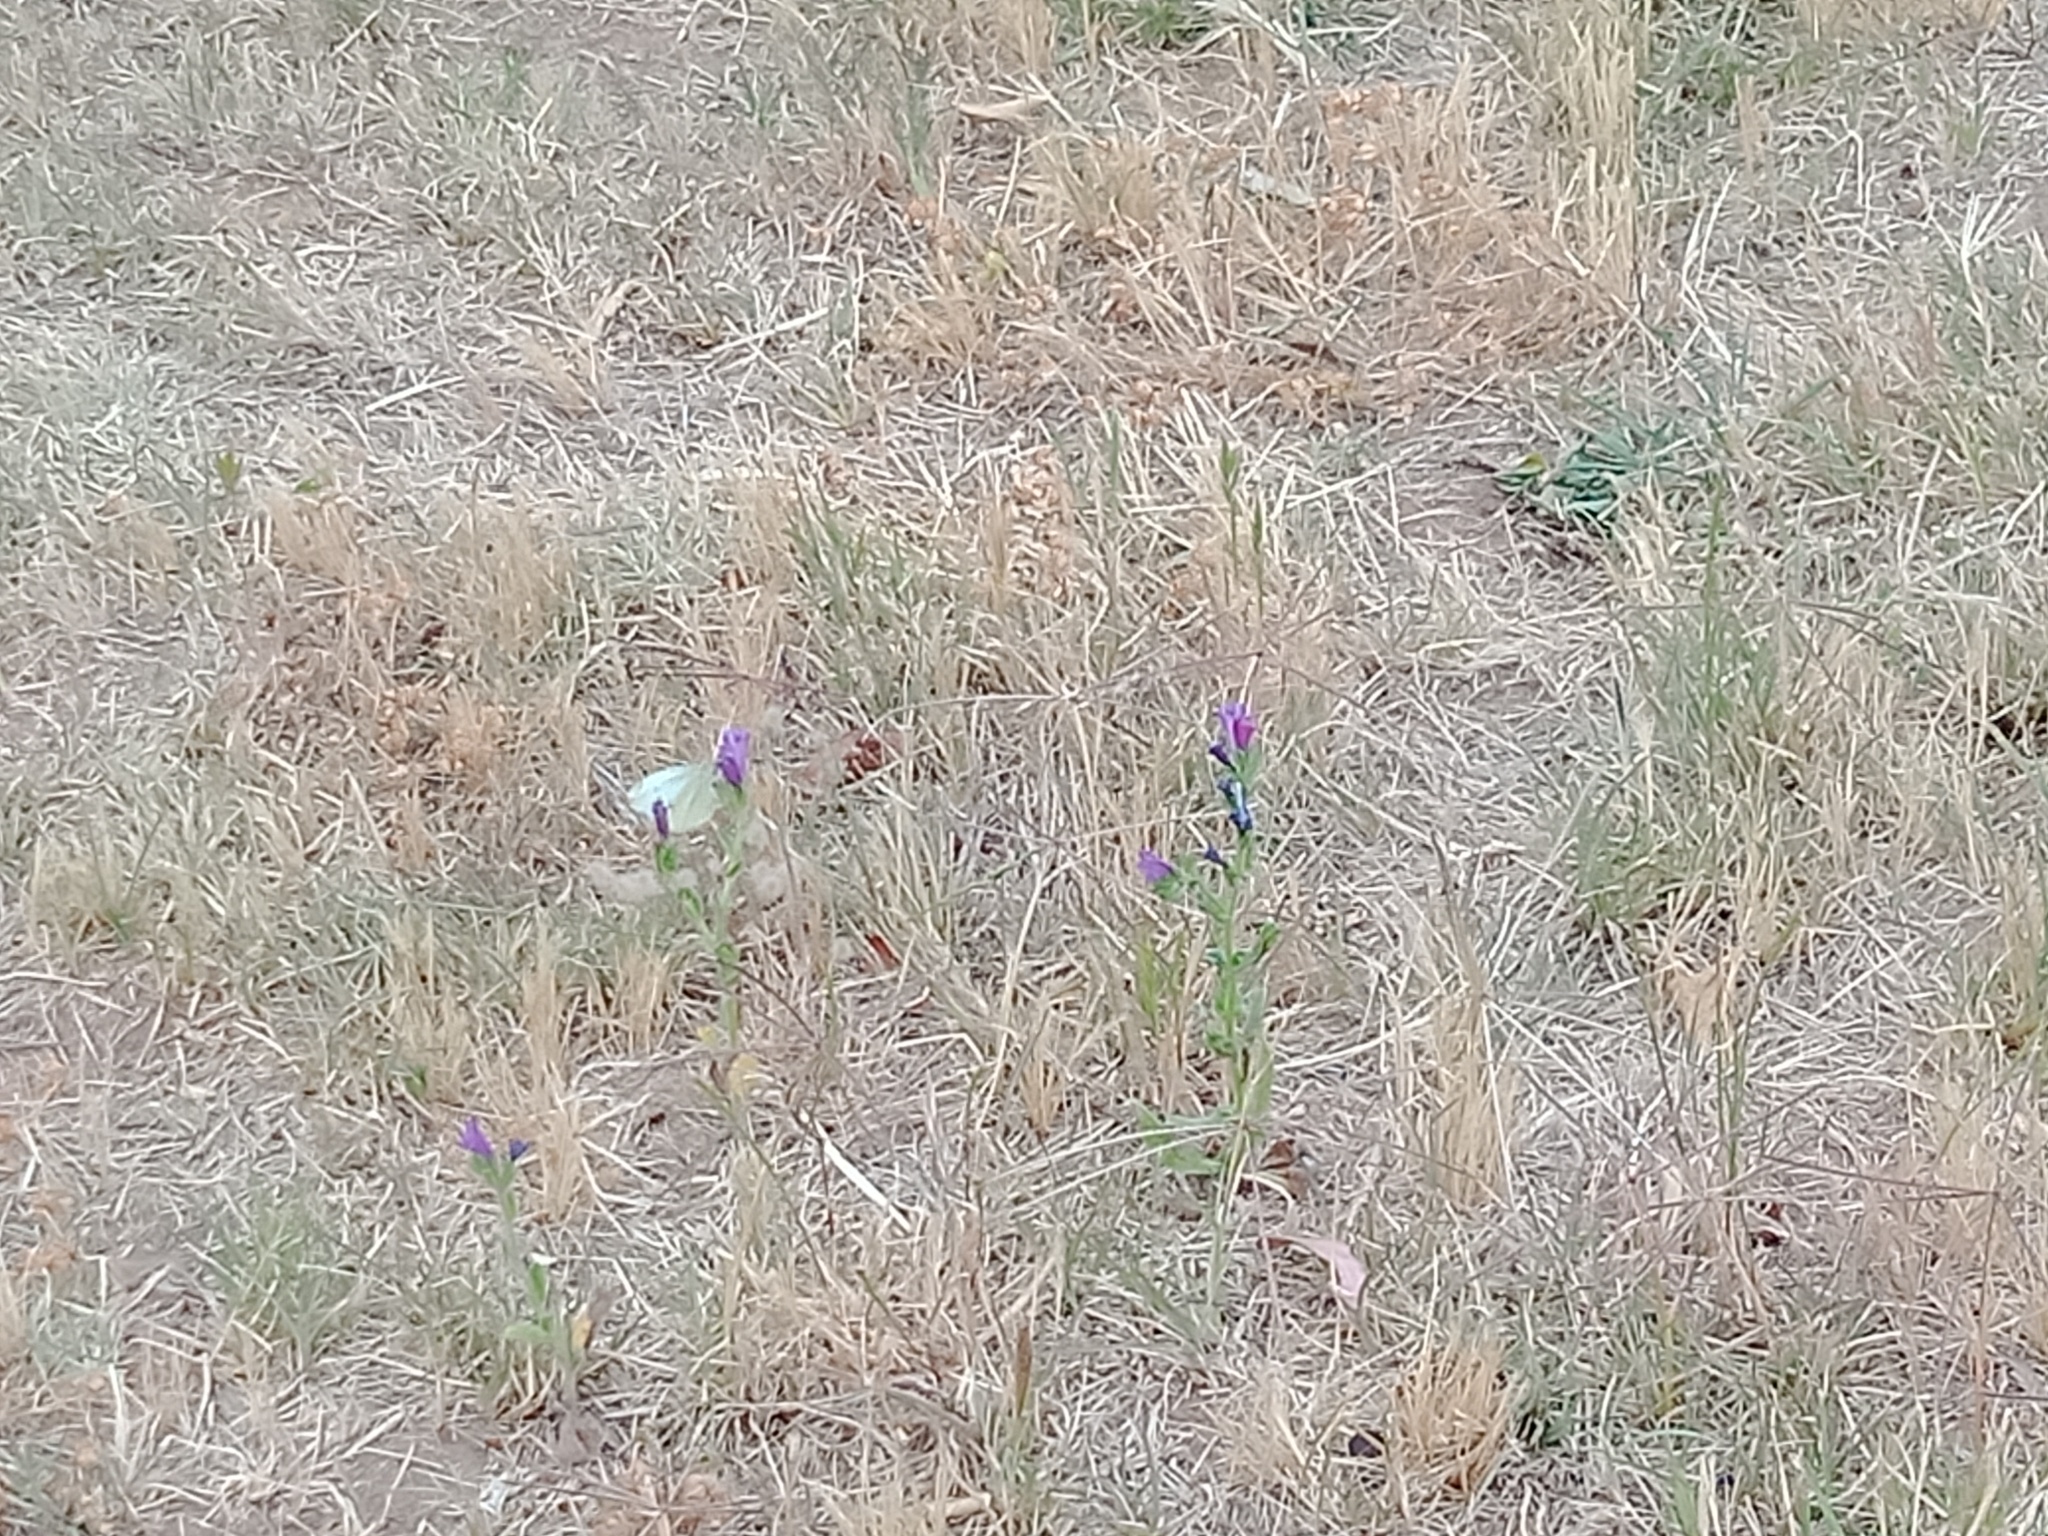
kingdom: Animalia
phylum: Arthropoda
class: Insecta
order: Lepidoptera
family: Pieridae
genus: Pieris
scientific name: Pieris rapae
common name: Small white
